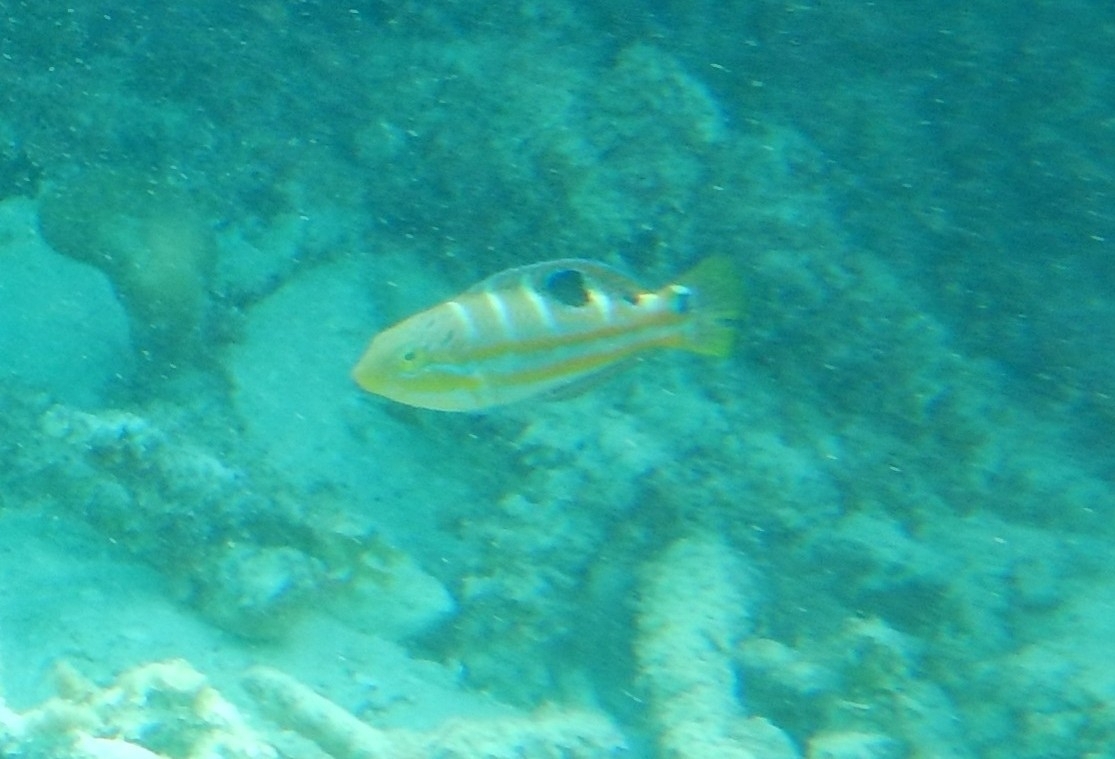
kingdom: Animalia
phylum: Chordata
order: Perciformes
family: Labridae
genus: Halichoeres
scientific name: Halichoeres radiatus
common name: Puddingwife
